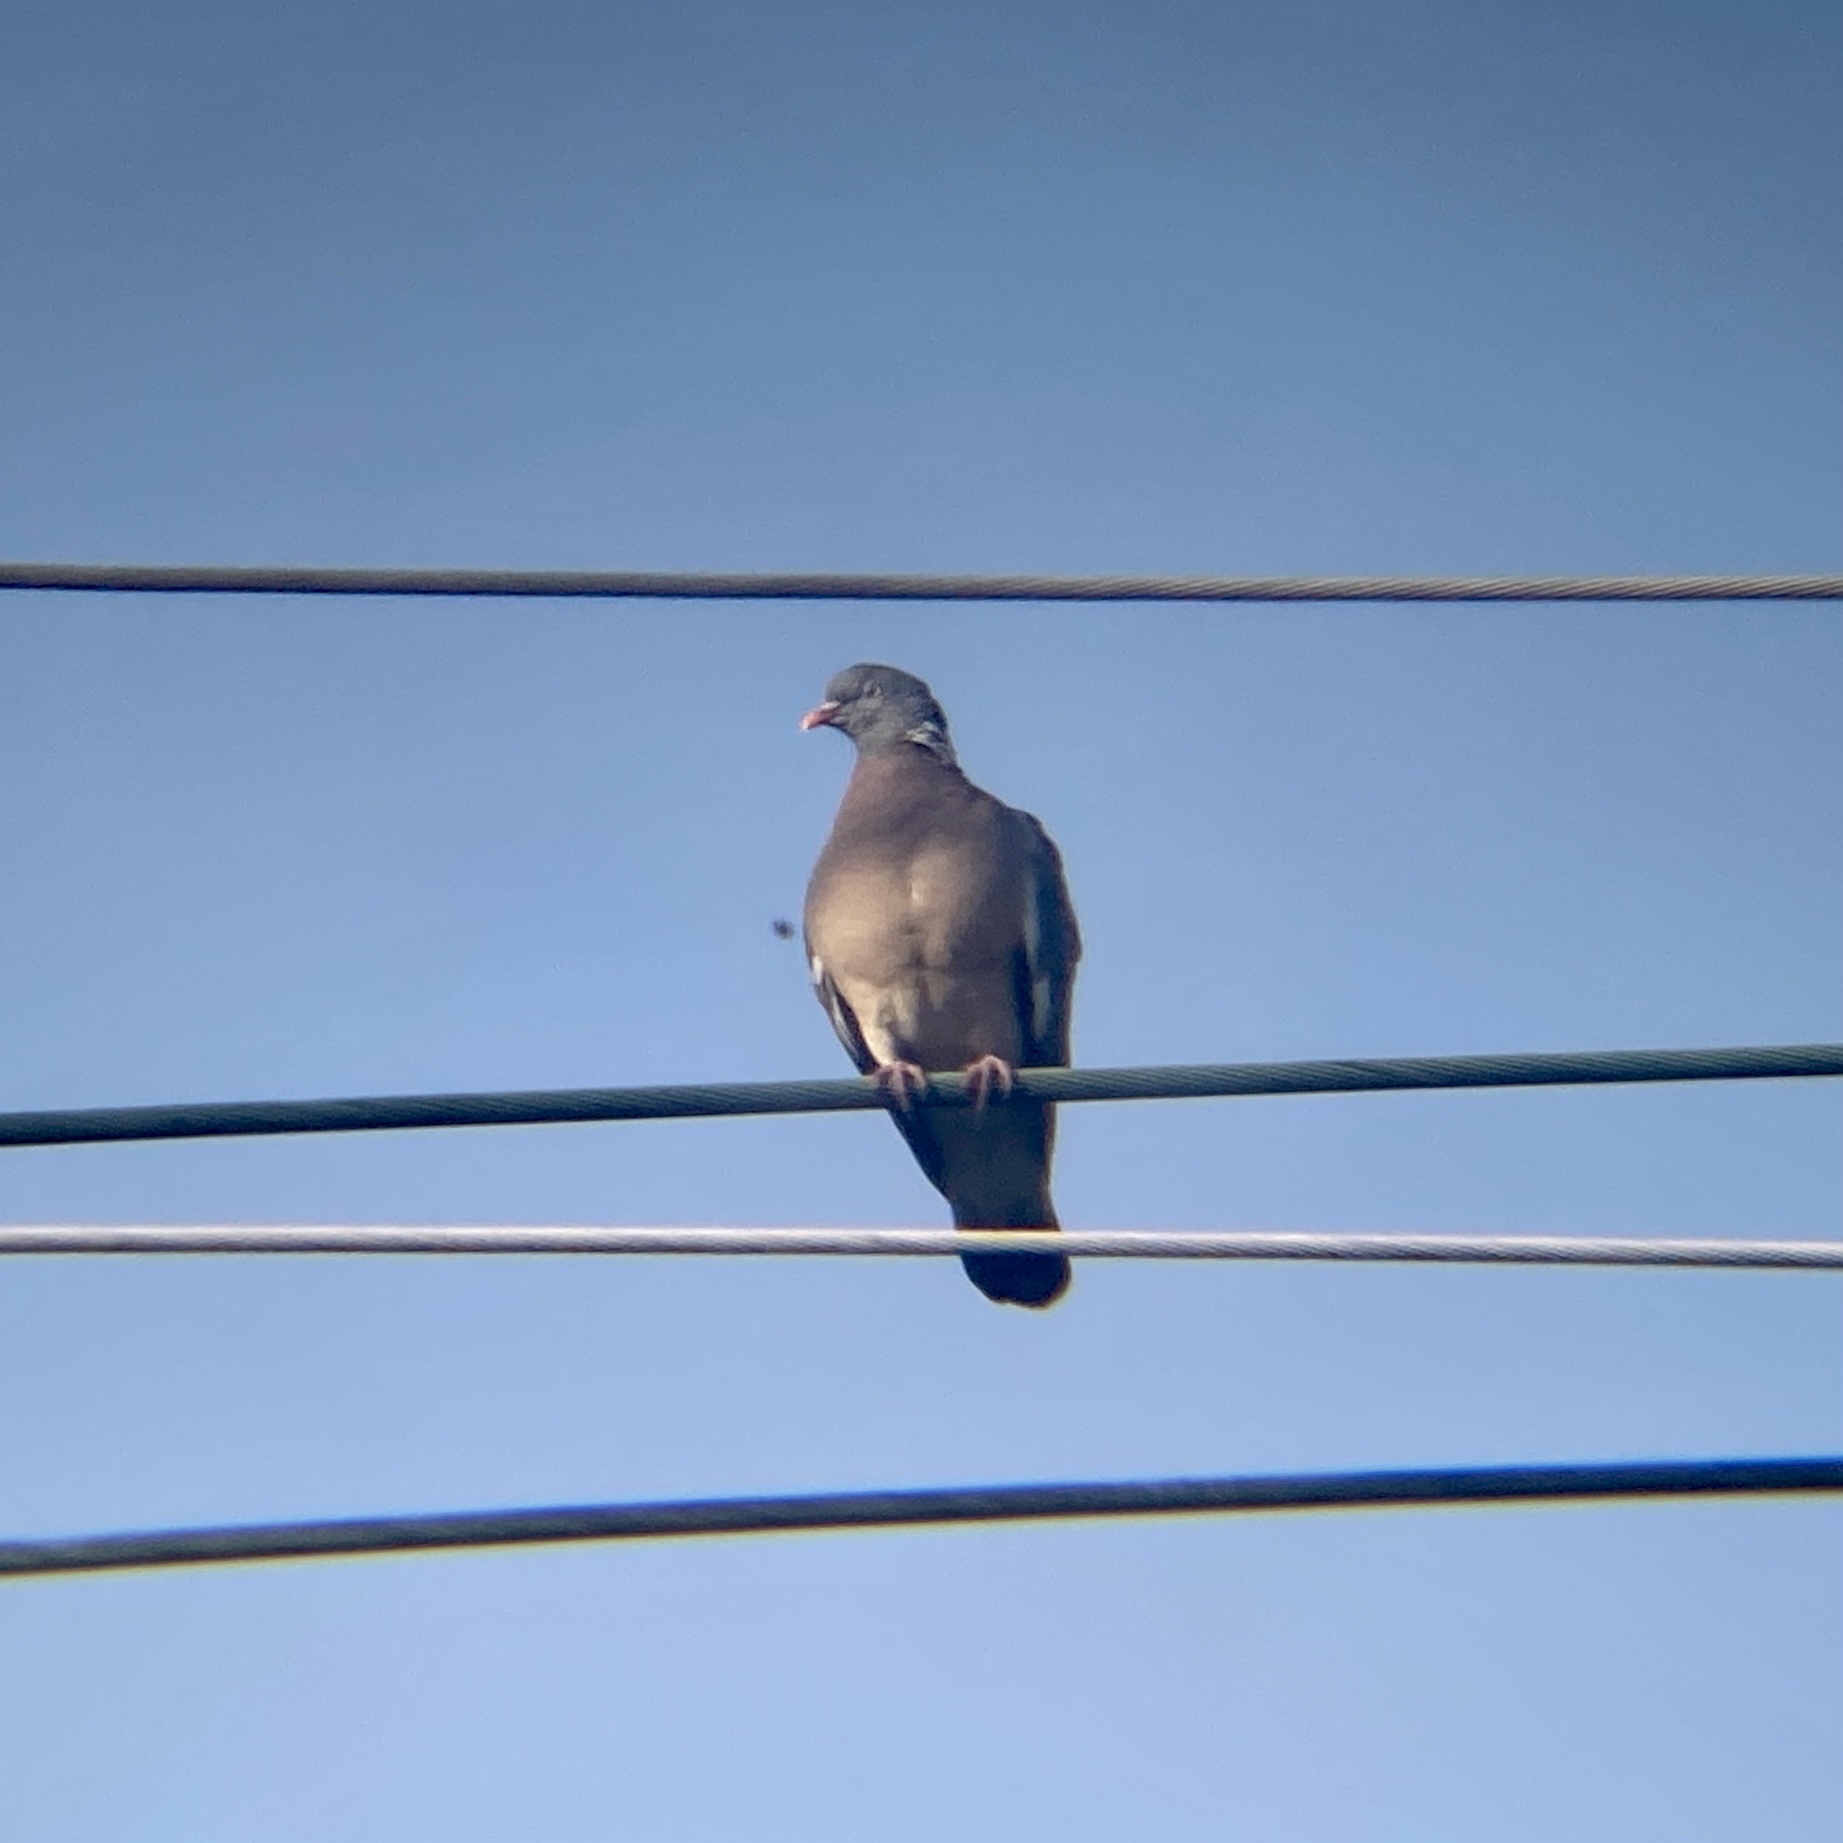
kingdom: Animalia
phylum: Chordata
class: Aves
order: Columbiformes
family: Columbidae
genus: Columba
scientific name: Columba palumbus
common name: Common wood pigeon
